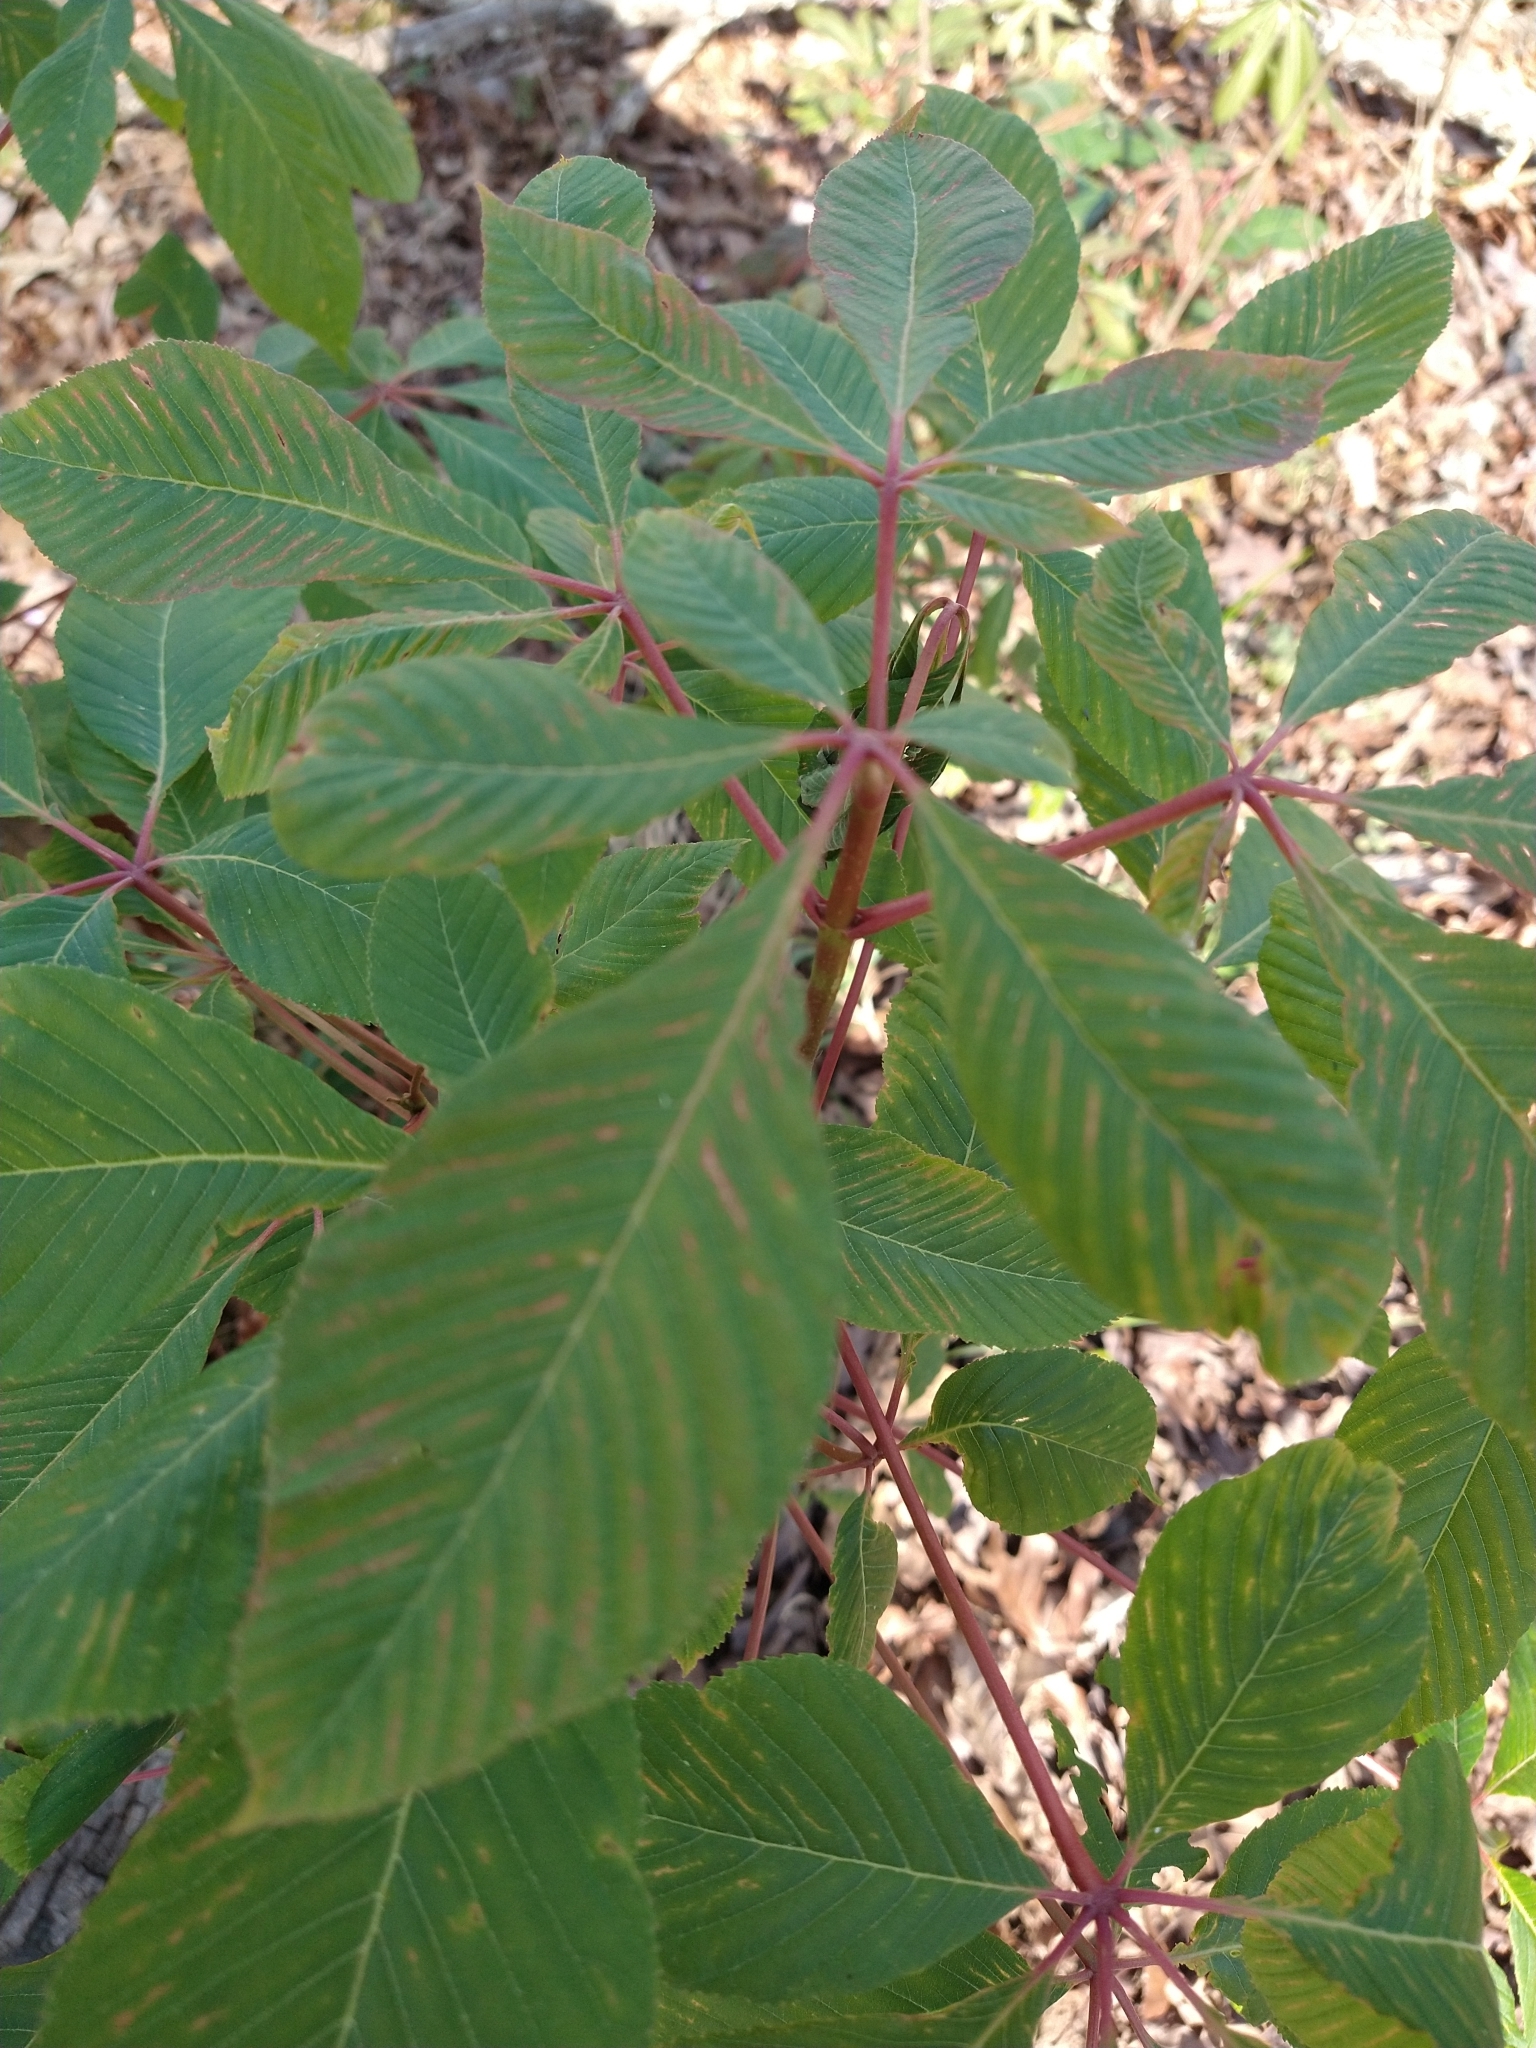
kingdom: Plantae
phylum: Tracheophyta
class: Magnoliopsida
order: Sapindales
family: Sapindaceae
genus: Aesculus
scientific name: Aesculus pavia
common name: Red buckeye
